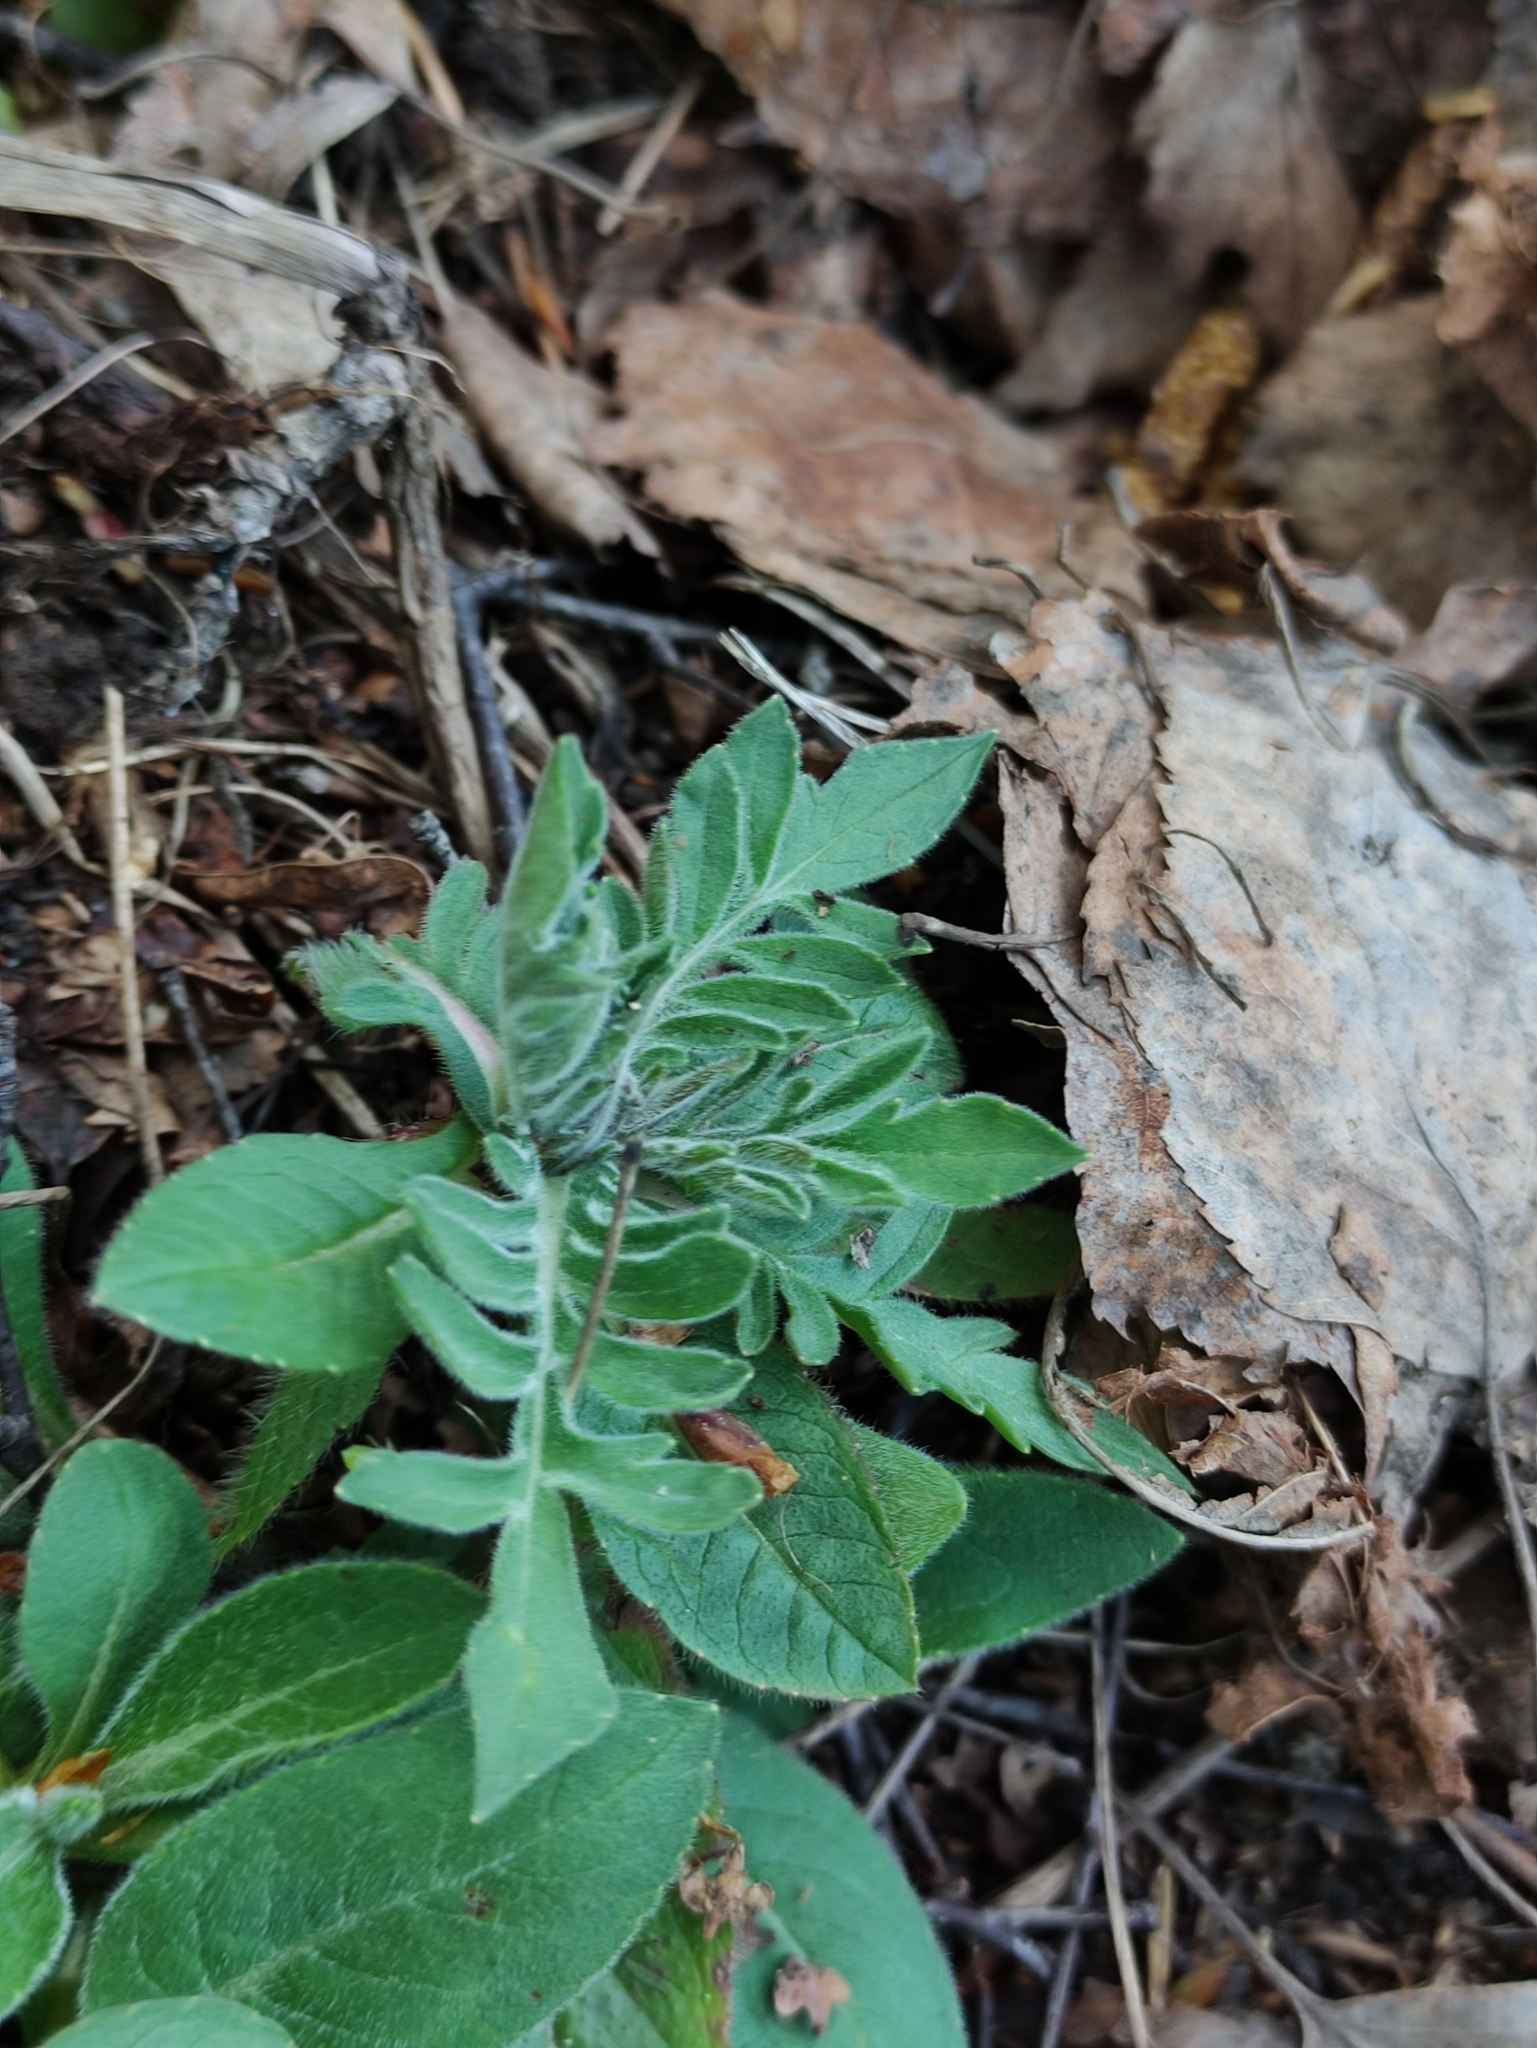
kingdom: Plantae
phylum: Tracheophyta
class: Magnoliopsida
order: Dipsacales
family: Caprifoliaceae
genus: Knautia
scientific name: Knautia arvensis
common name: Field scabiosa
